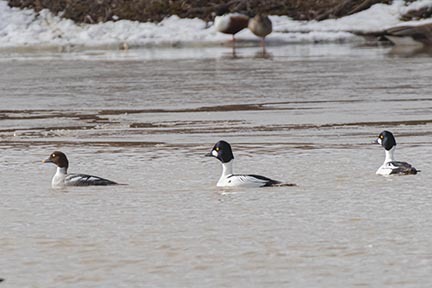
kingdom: Animalia
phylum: Chordata
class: Aves
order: Anseriformes
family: Anatidae
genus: Bucephala
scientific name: Bucephala clangula
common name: Common goldeneye
